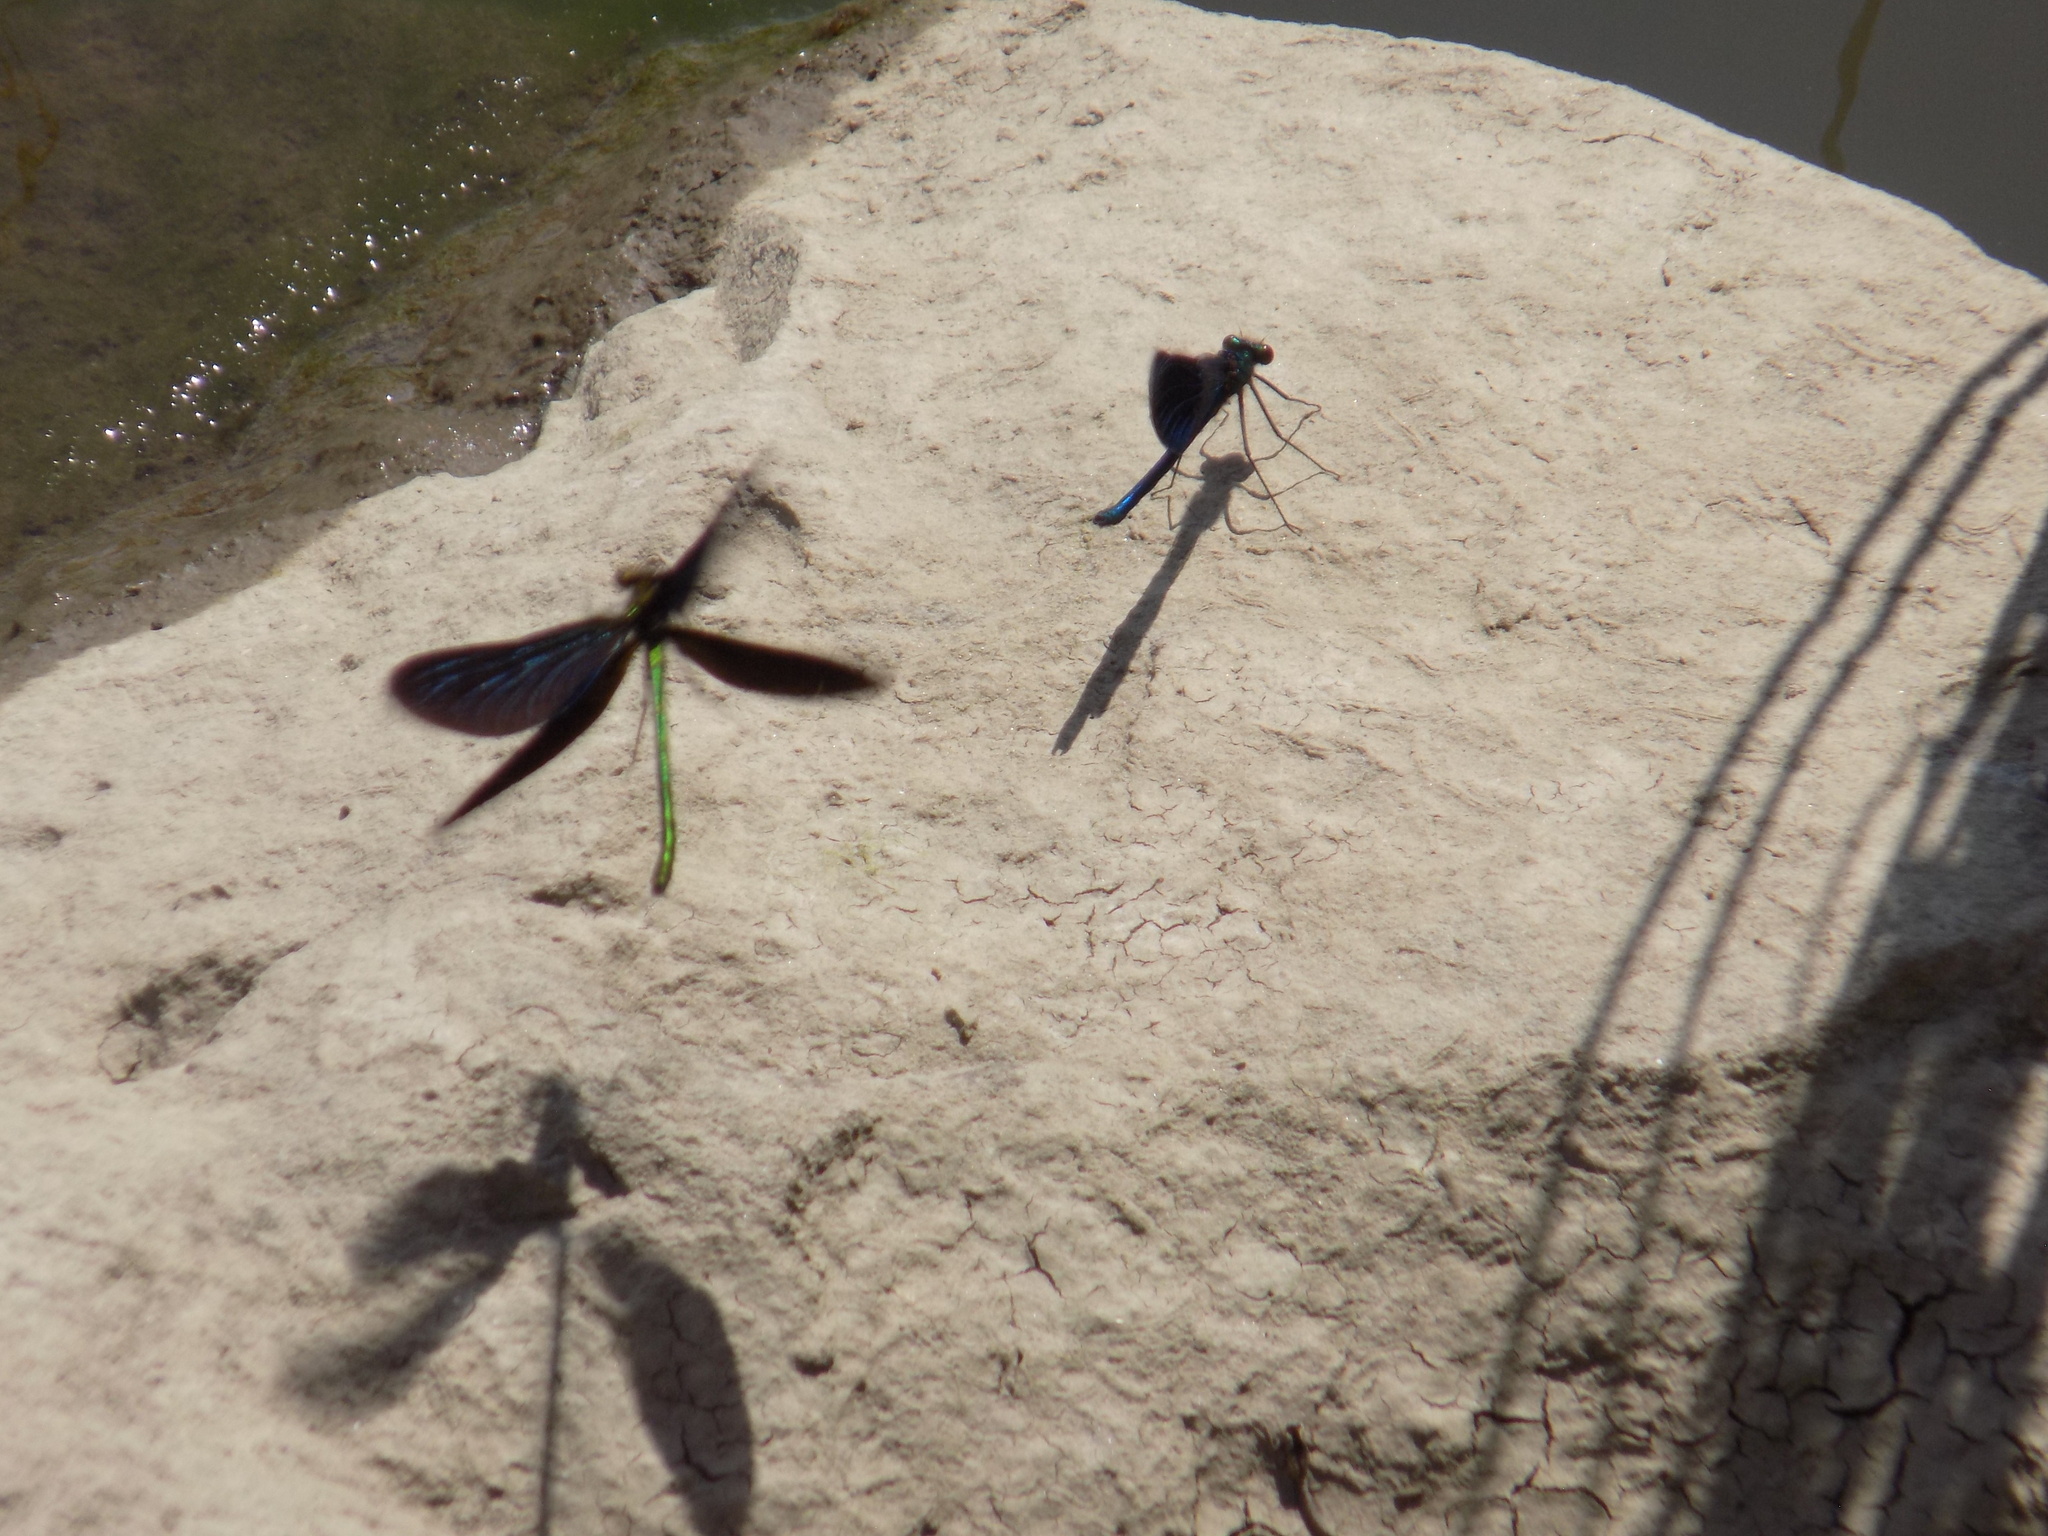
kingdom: Animalia
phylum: Arthropoda
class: Insecta
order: Odonata
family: Calopterygidae
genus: Calopteryx
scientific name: Calopteryx japonica
